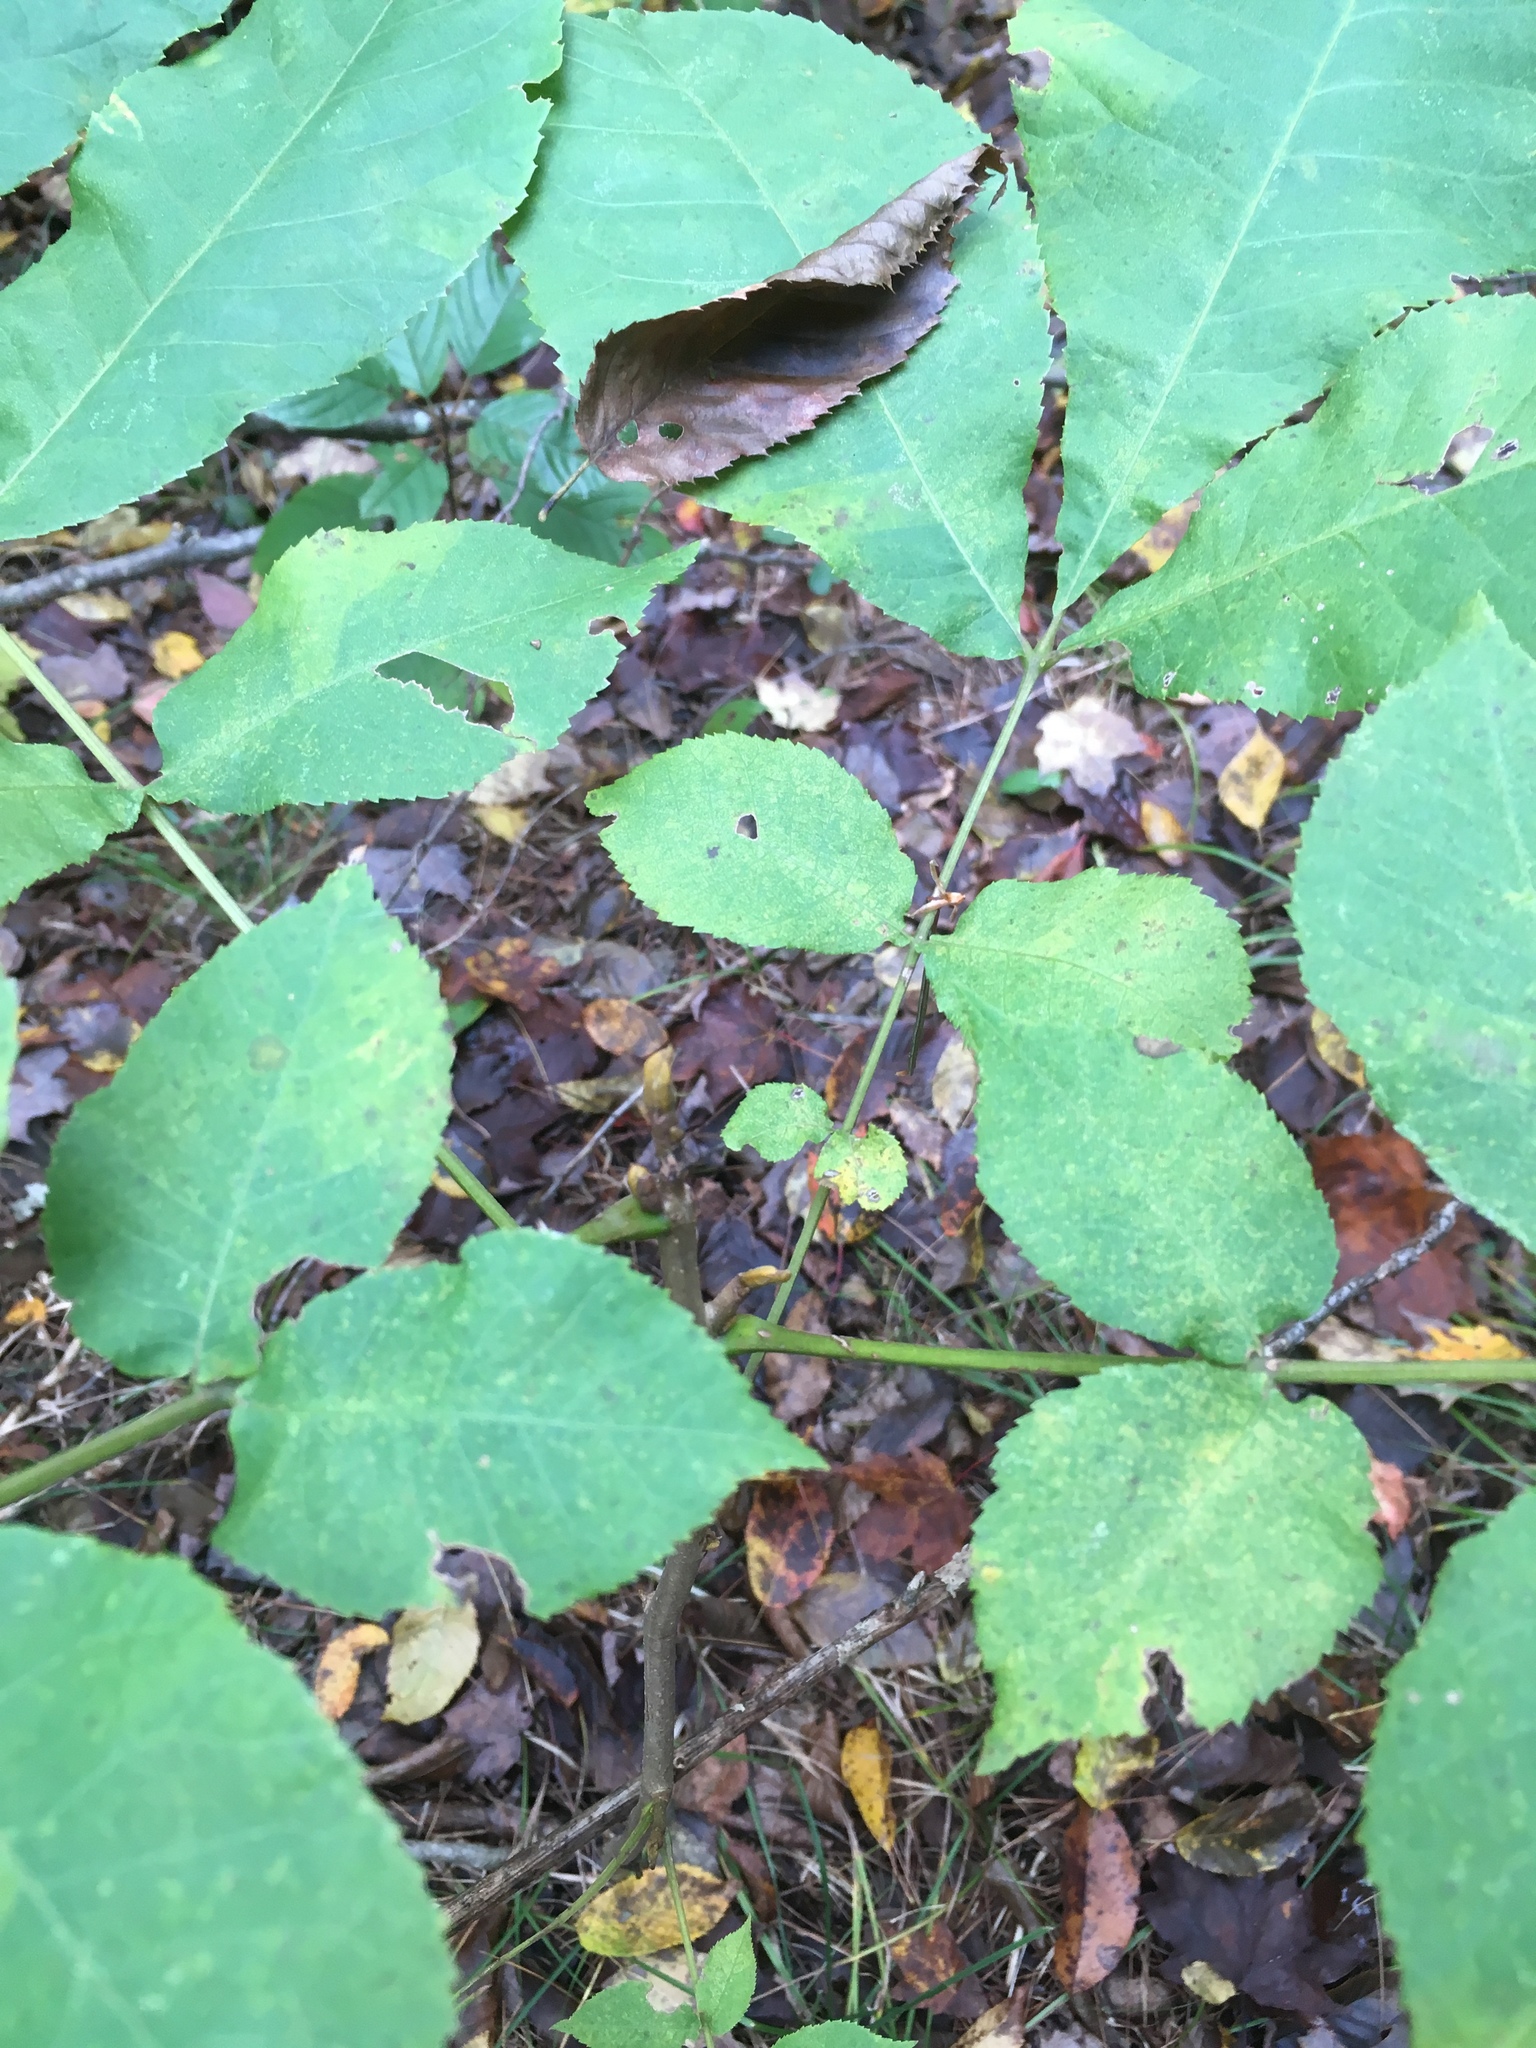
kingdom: Plantae
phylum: Tracheophyta
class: Magnoliopsida
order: Fagales
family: Juglandaceae
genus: Carya
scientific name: Carya cordiformis
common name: Bitternut hickory
